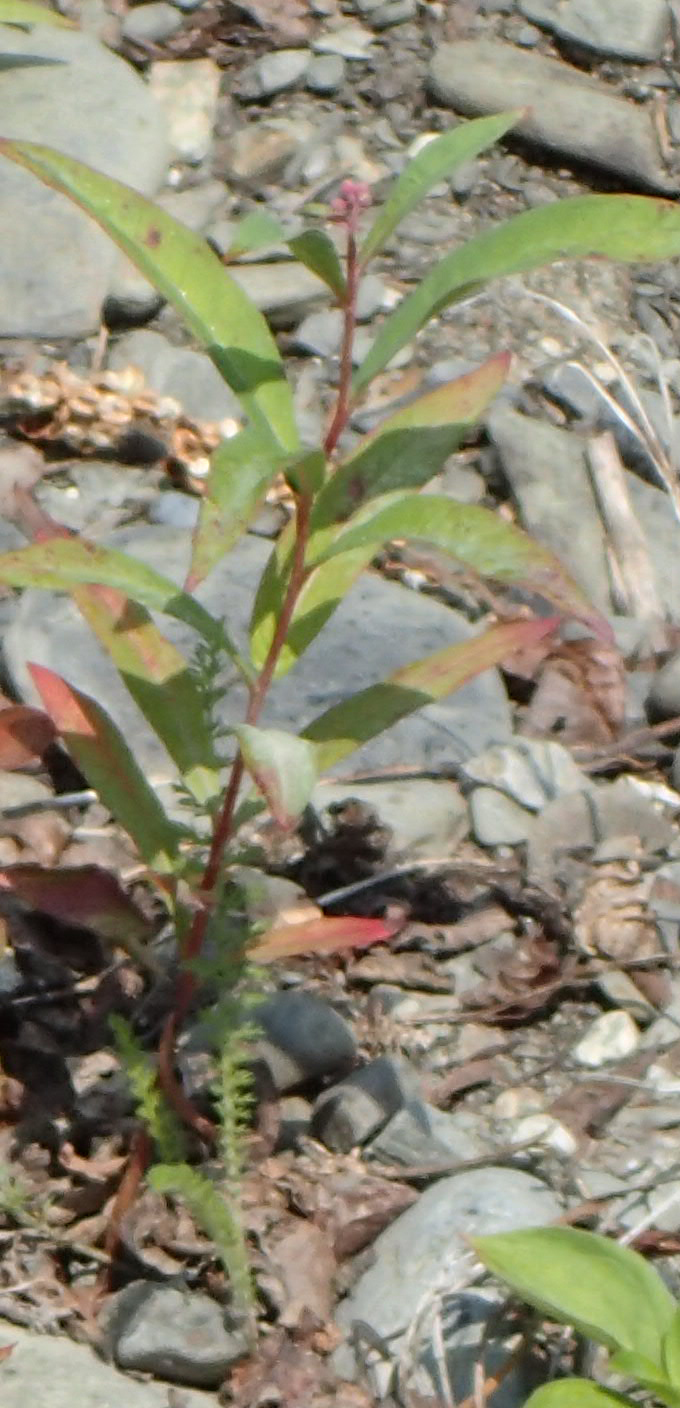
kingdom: Plantae
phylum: Tracheophyta
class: Magnoliopsida
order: Myrtales
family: Onagraceae
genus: Chamaenerion
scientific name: Chamaenerion angustifolium
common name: Fireweed
